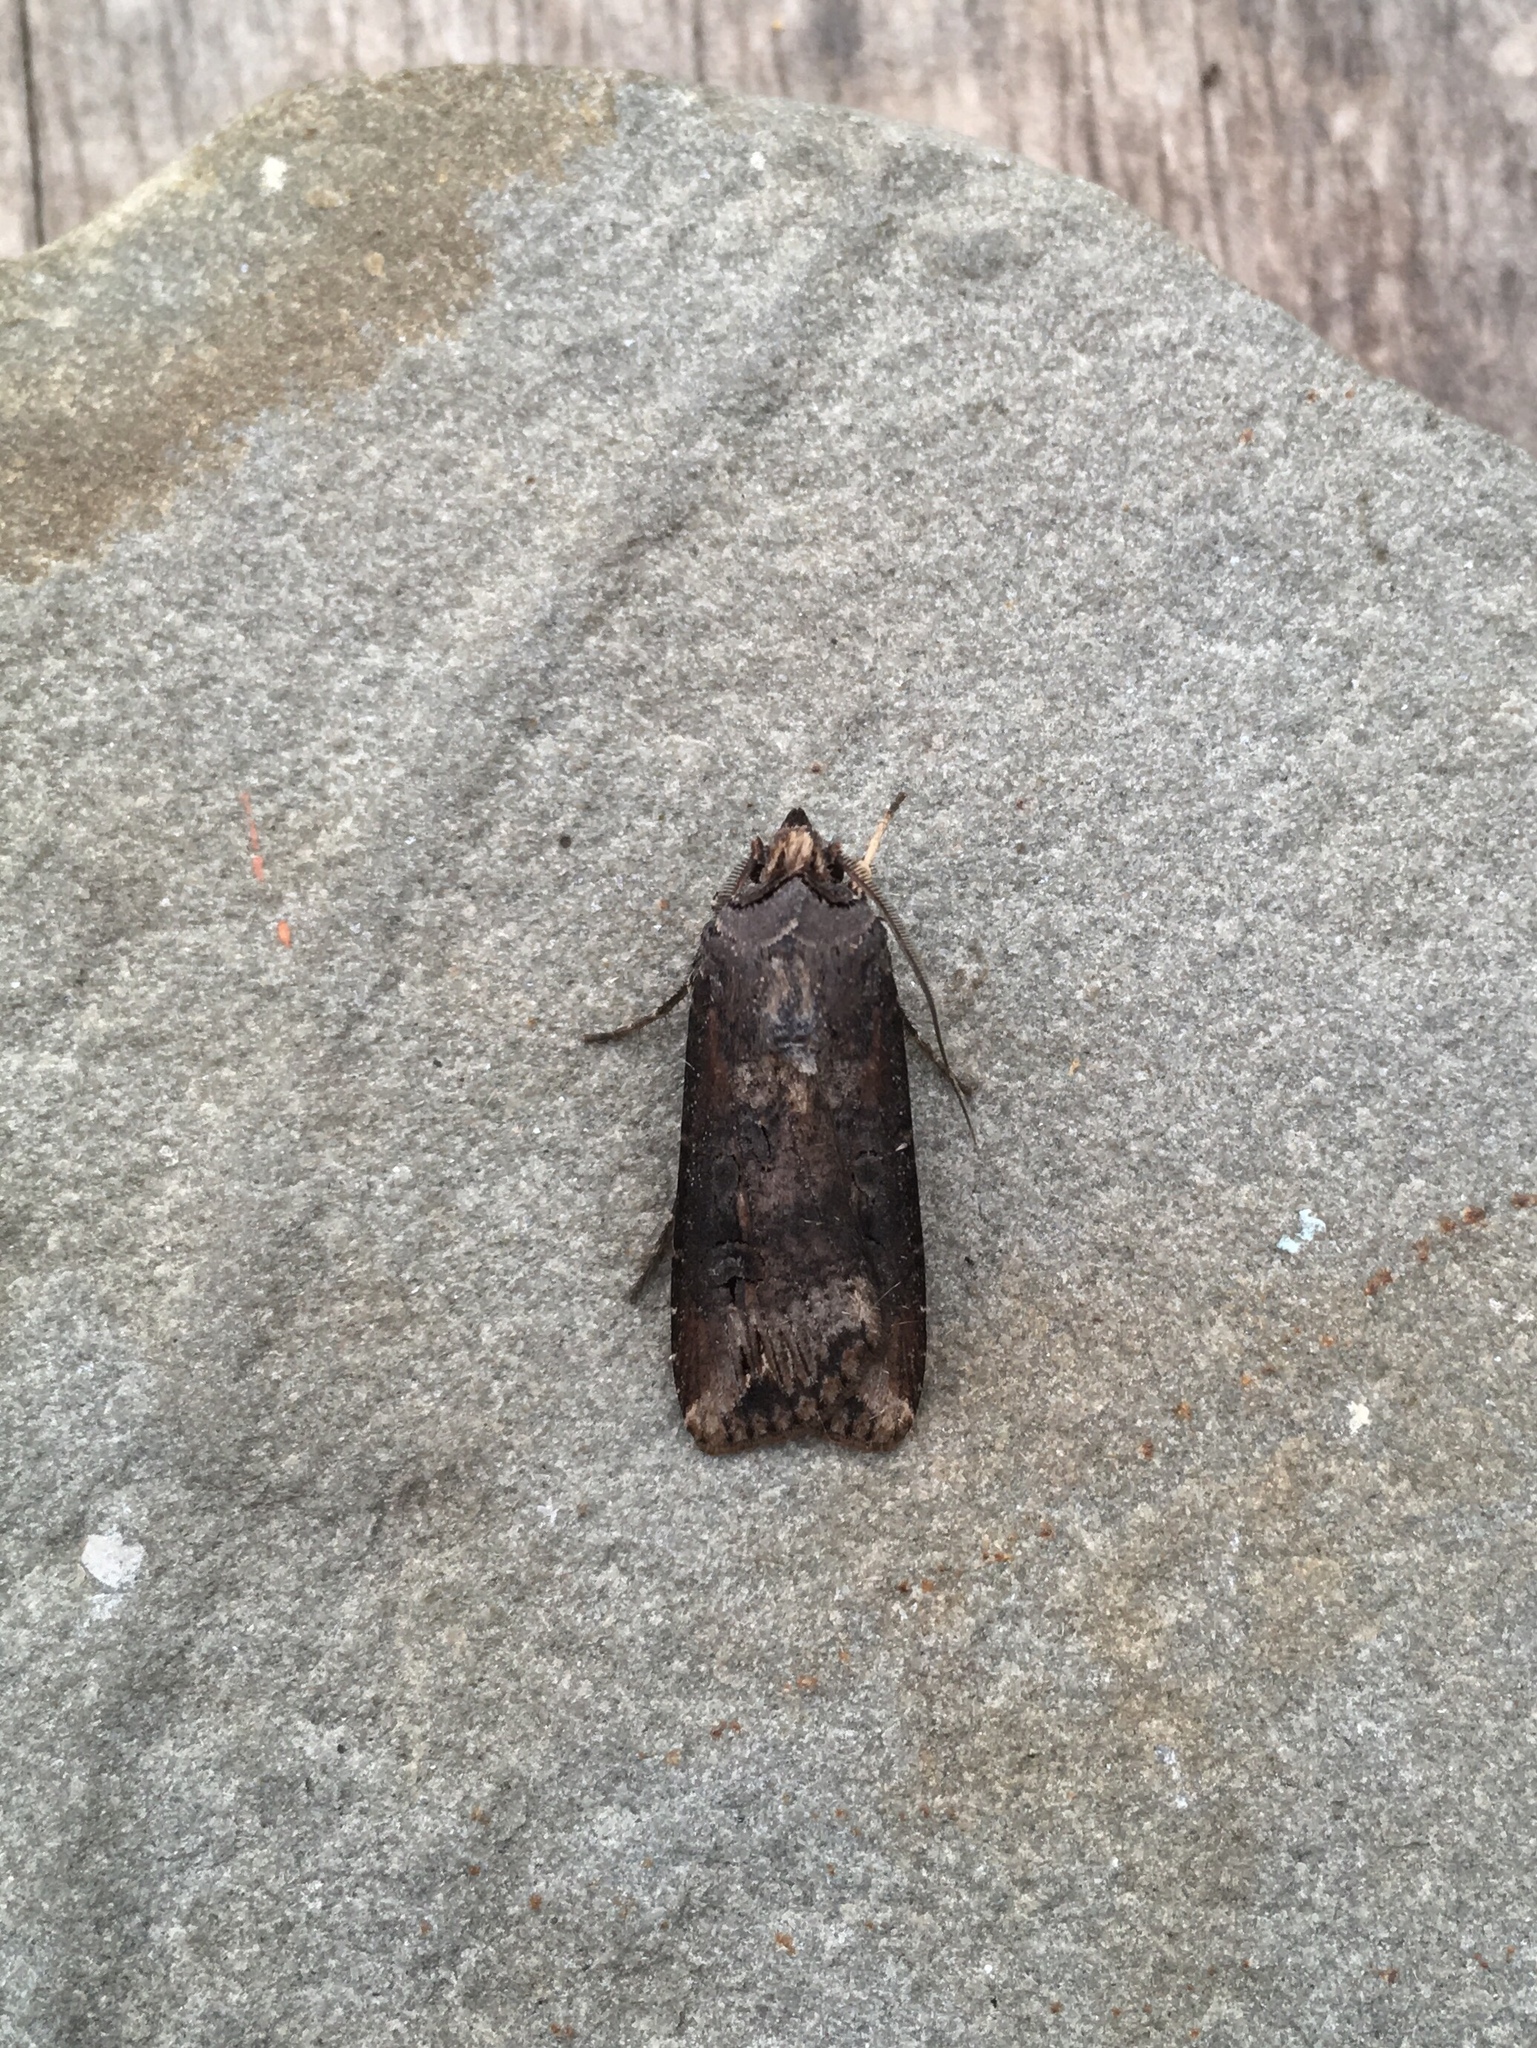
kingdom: Animalia
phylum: Arthropoda
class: Insecta
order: Lepidoptera
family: Noctuidae
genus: Agrotis
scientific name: Agrotis ipsilon
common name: Dark sword-grass
